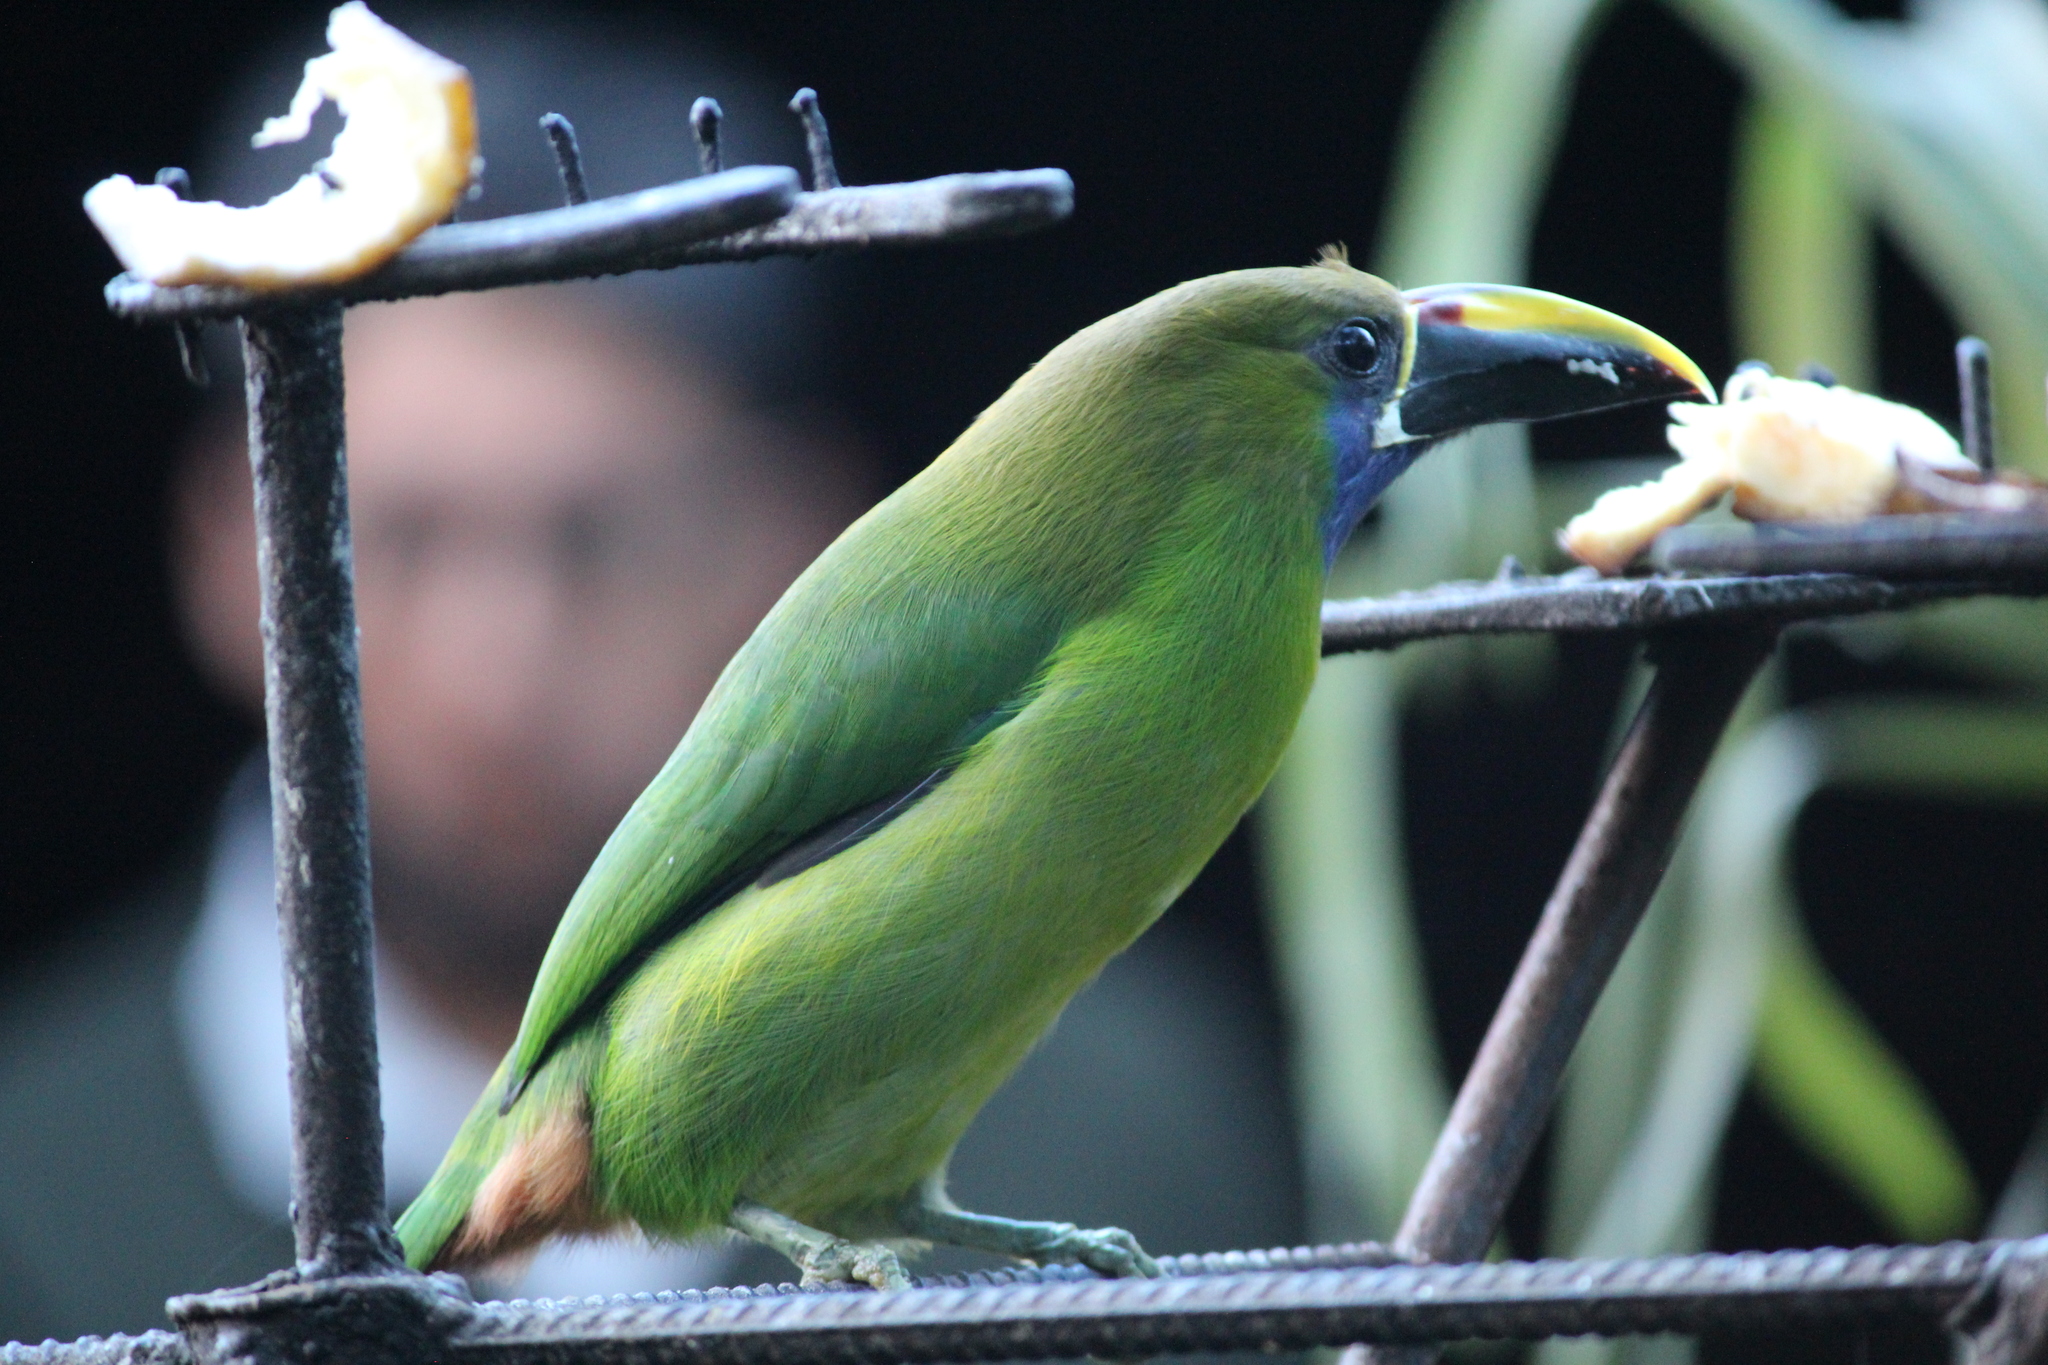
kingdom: Animalia
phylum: Chordata
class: Aves
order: Piciformes
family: Ramphastidae
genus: Aulacorhynchus
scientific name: Aulacorhynchus prasinus
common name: Emerald toucanet
